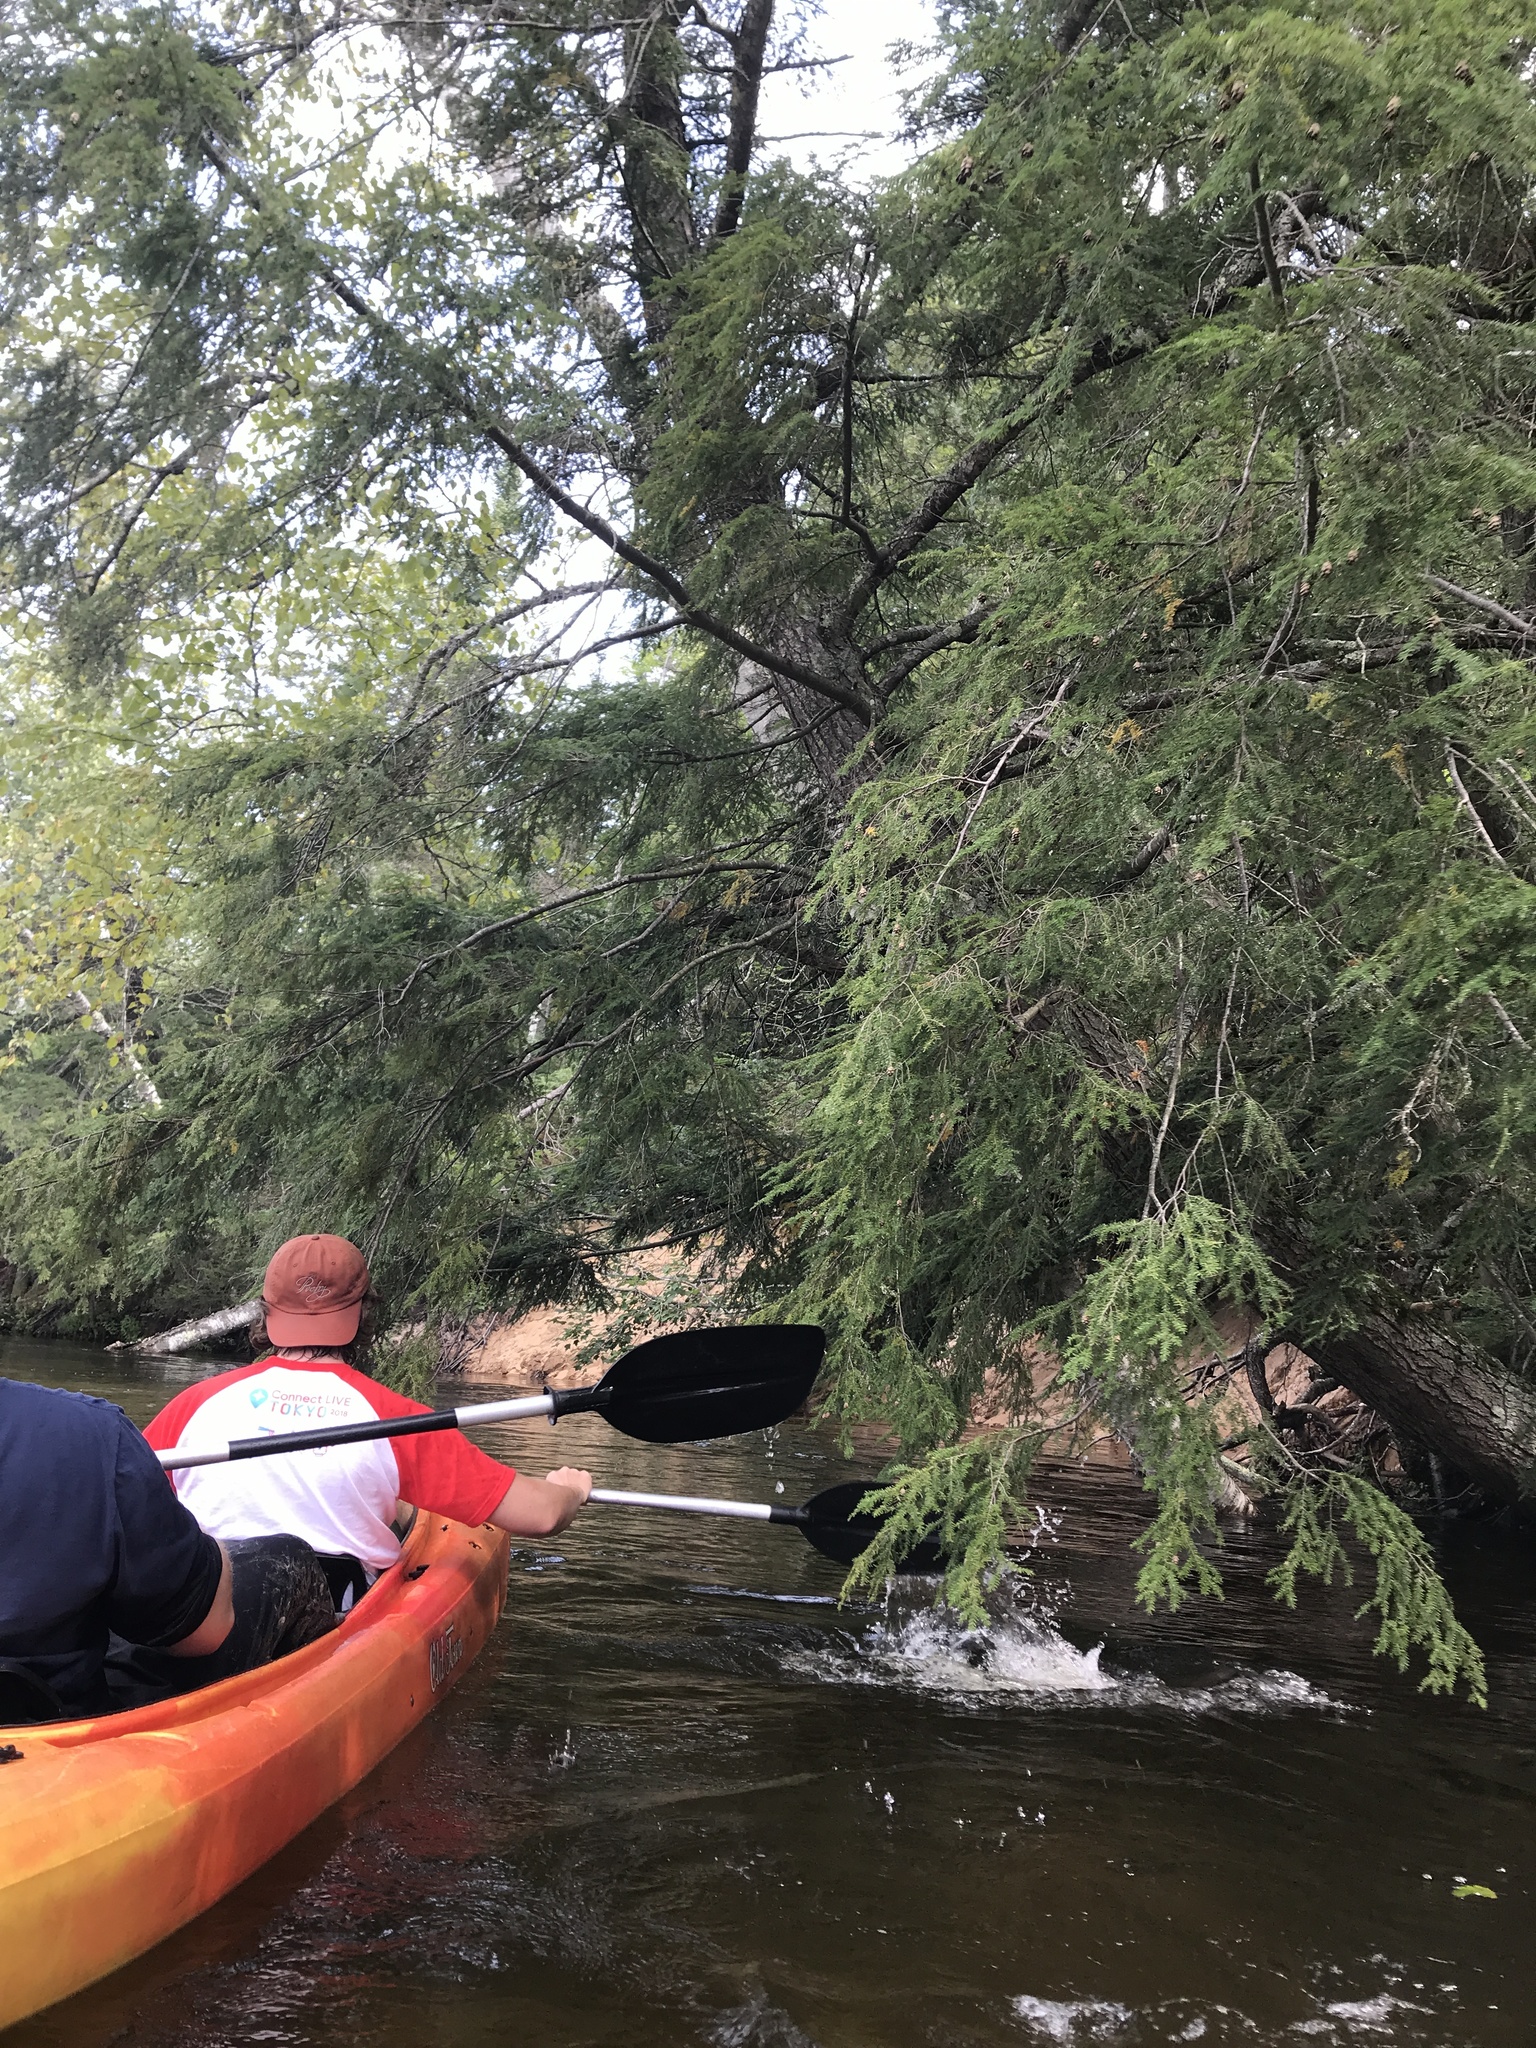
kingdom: Plantae
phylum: Tracheophyta
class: Pinopsida
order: Pinales
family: Pinaceae
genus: Tsuga
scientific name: Tsuga canadensis
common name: Eastern hemlock
